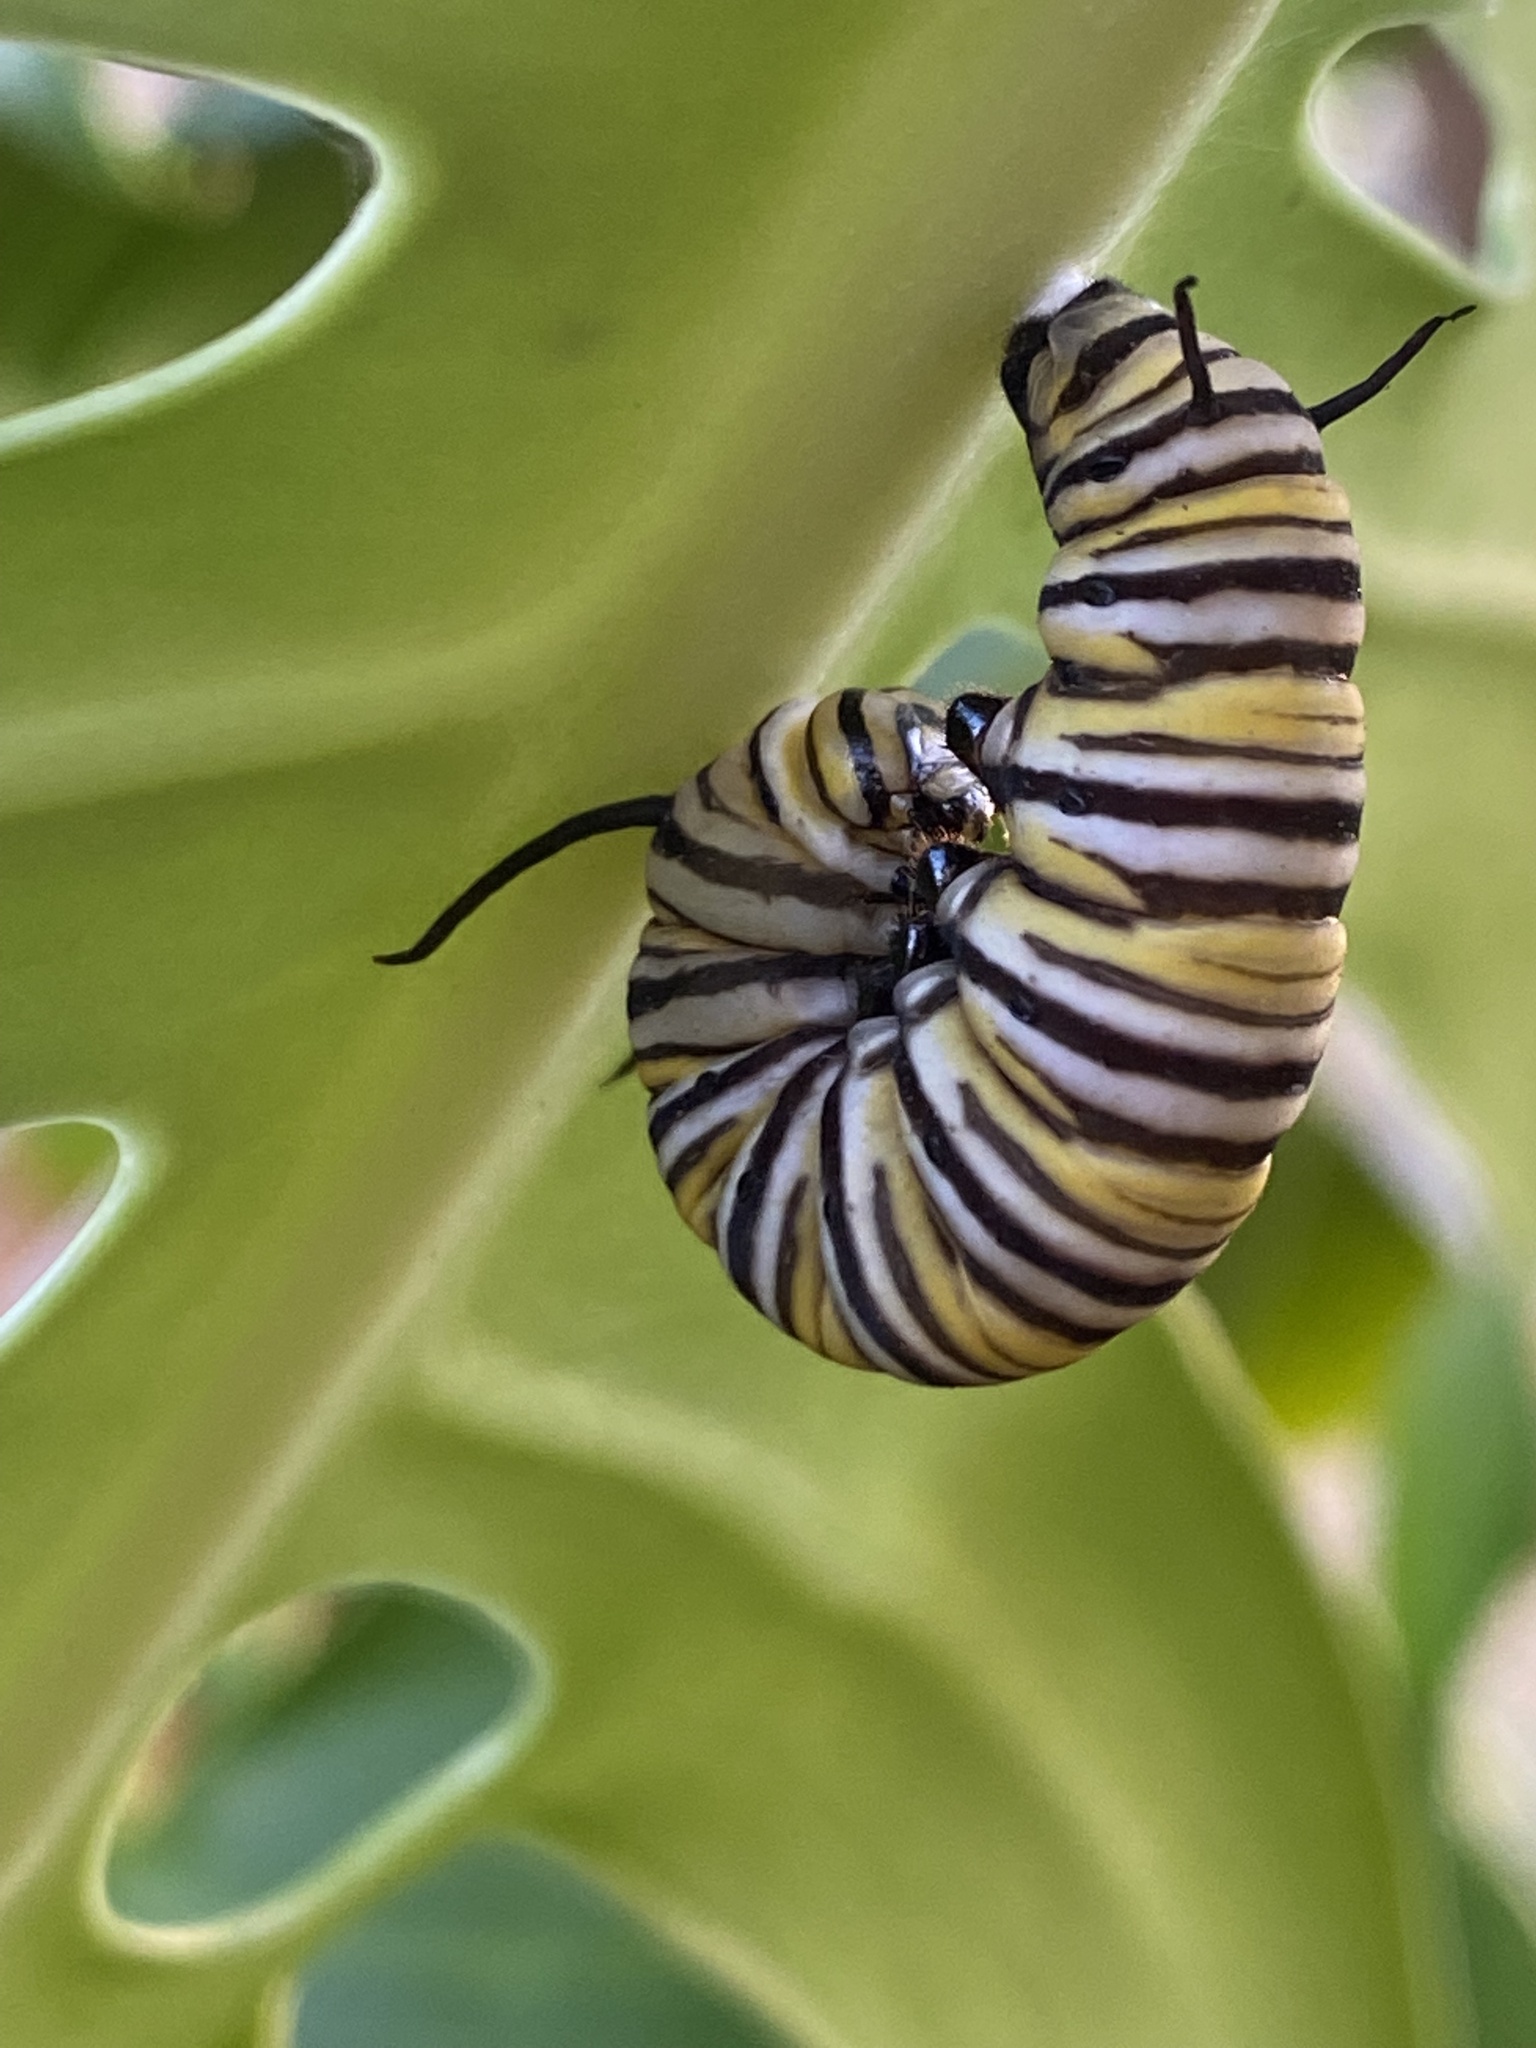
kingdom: Animalia
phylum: Arthropoda
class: Insecta
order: Lepidoptera
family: Nymphalidae
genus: Danaus
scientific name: Danaus plexippus
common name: Monarch
